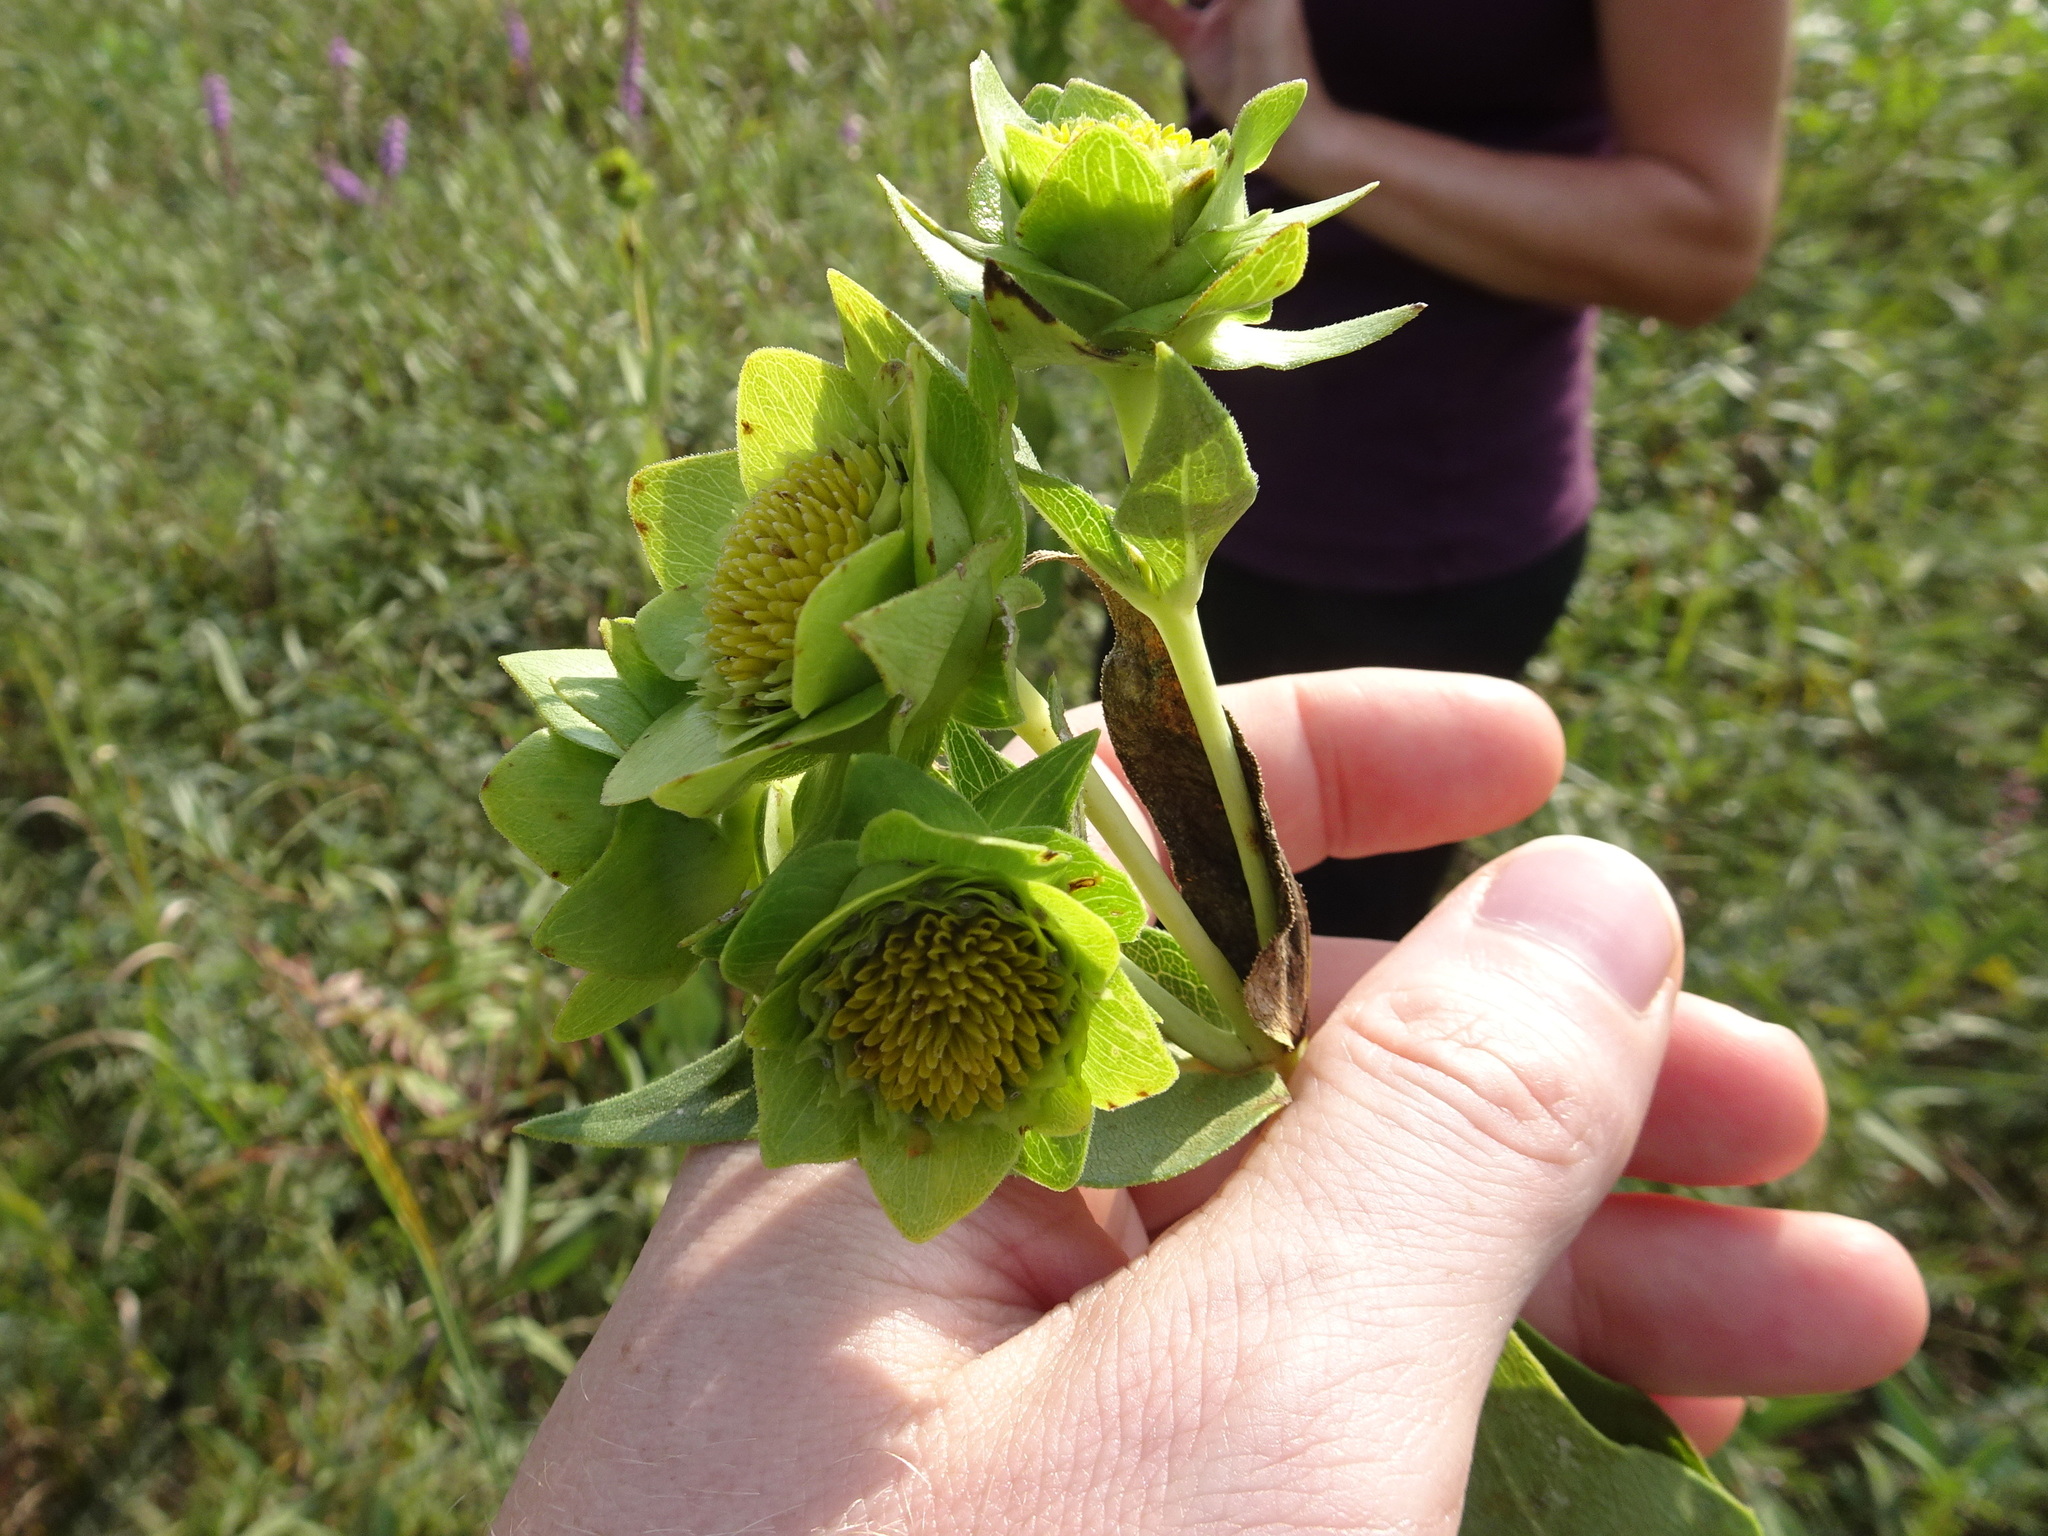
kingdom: Plantae
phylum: Tracheophyta
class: Magnoliopsida
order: Asterales
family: Asteraceae
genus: Silphium
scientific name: Silphium integrifolium
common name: Whole-leaf rosinweed
